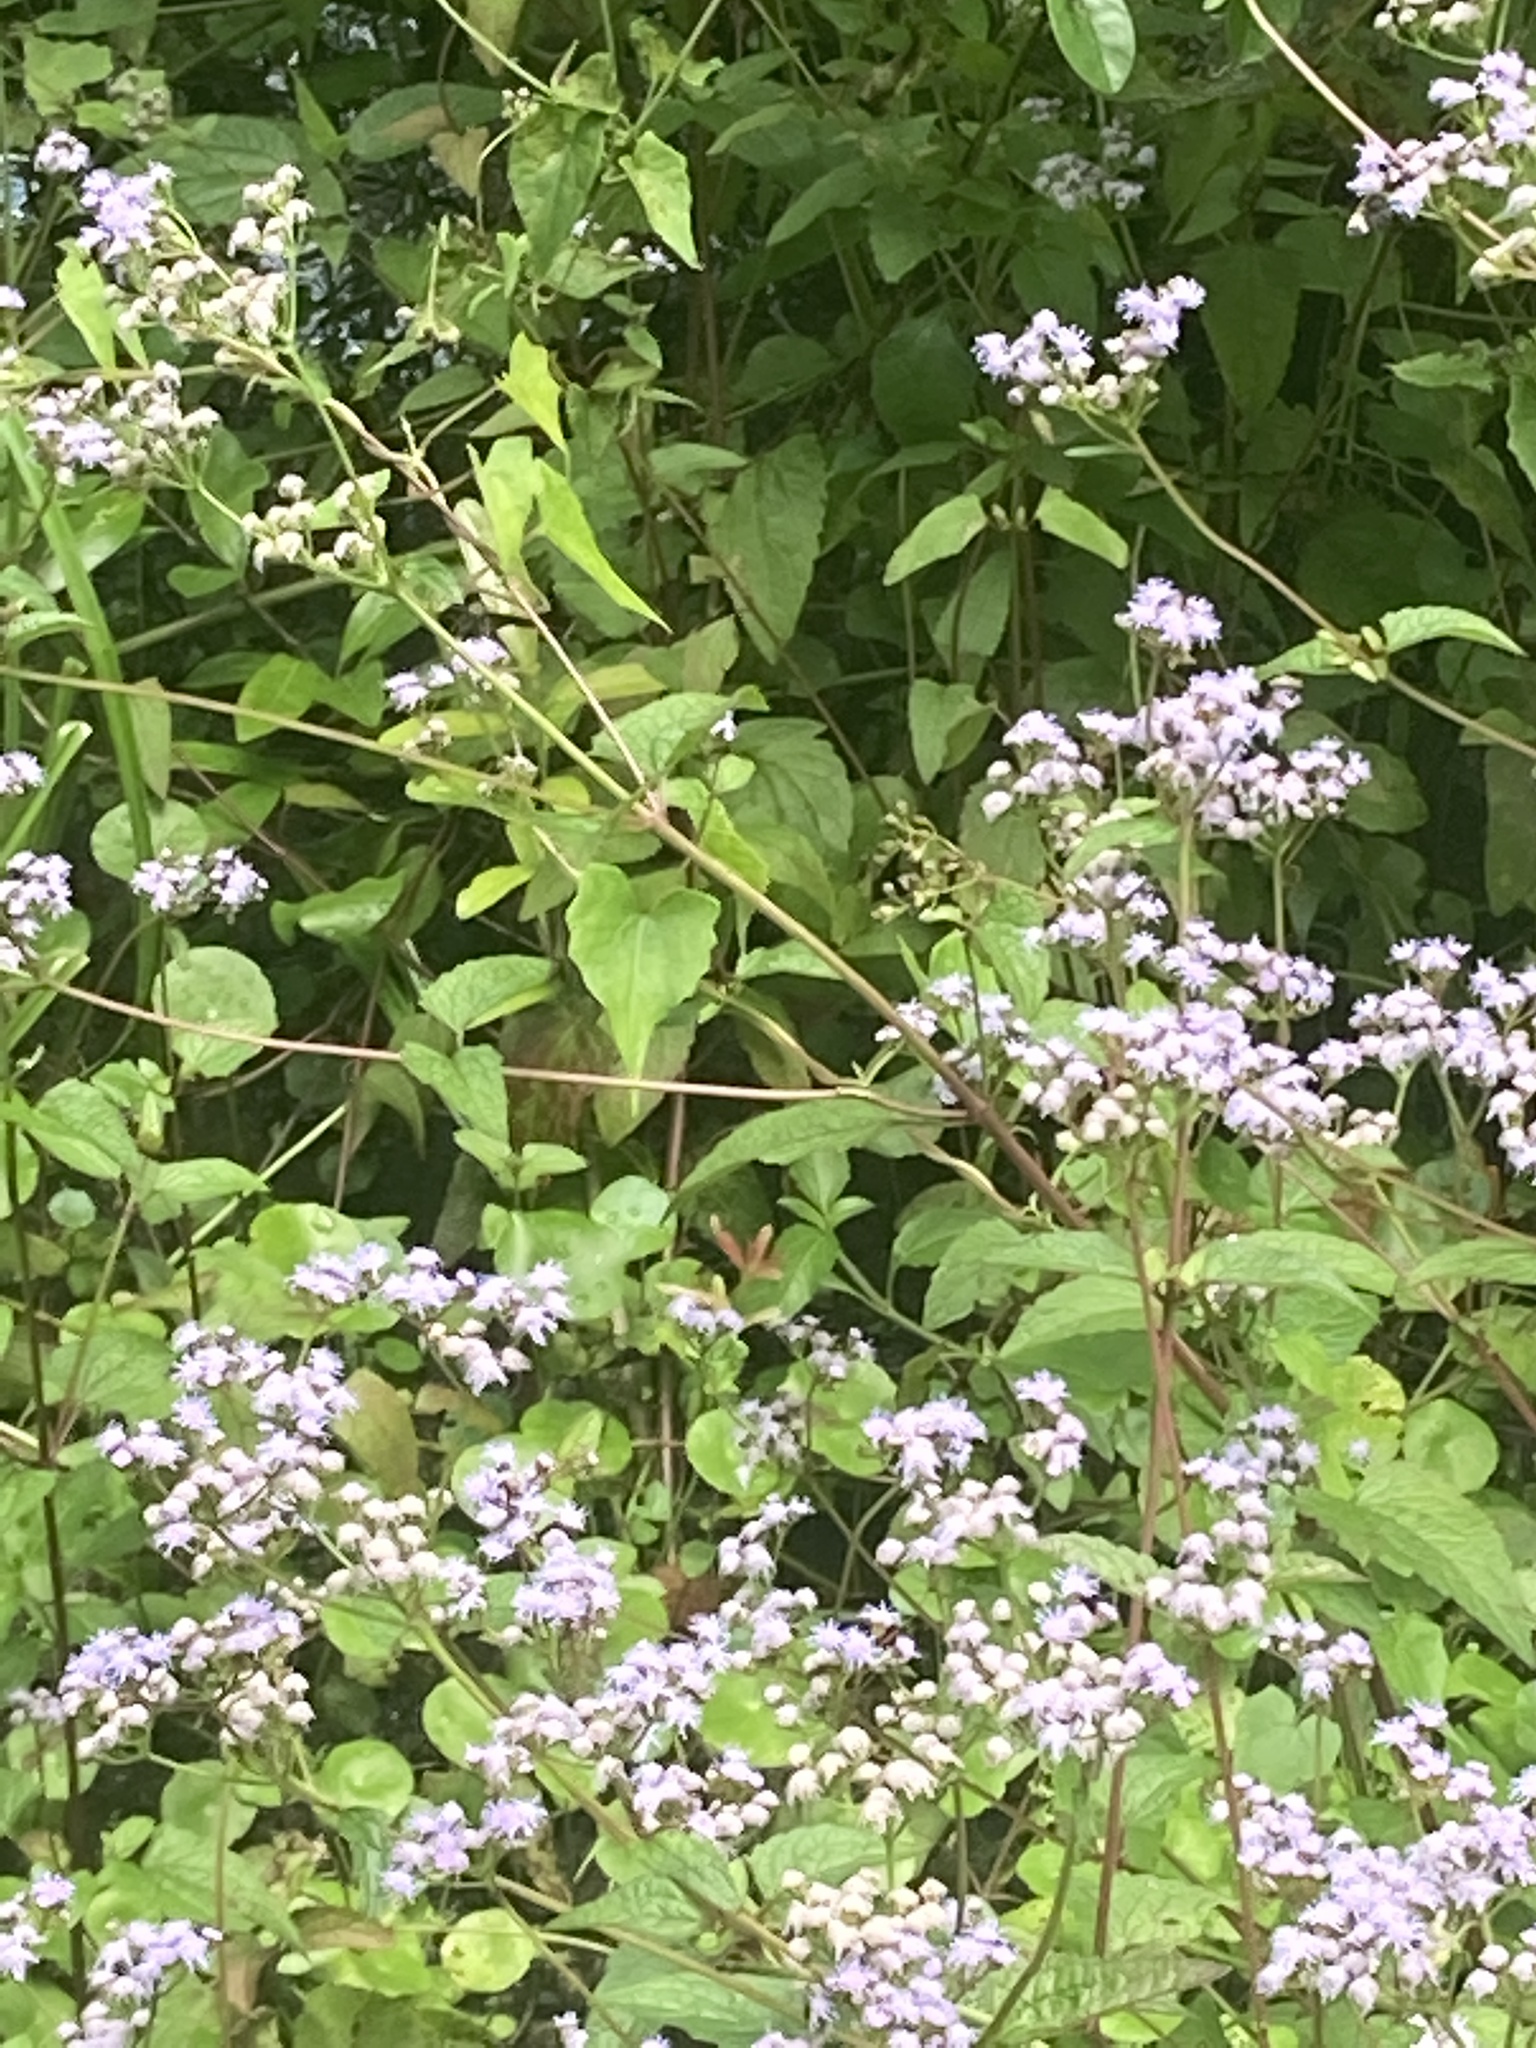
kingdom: Plantae
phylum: Tracheophyta
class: Magnoliopsida
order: Asterales
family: Asteraceae
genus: Conoclinium
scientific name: Conoclinium coelestinum
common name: Blue mistflower
